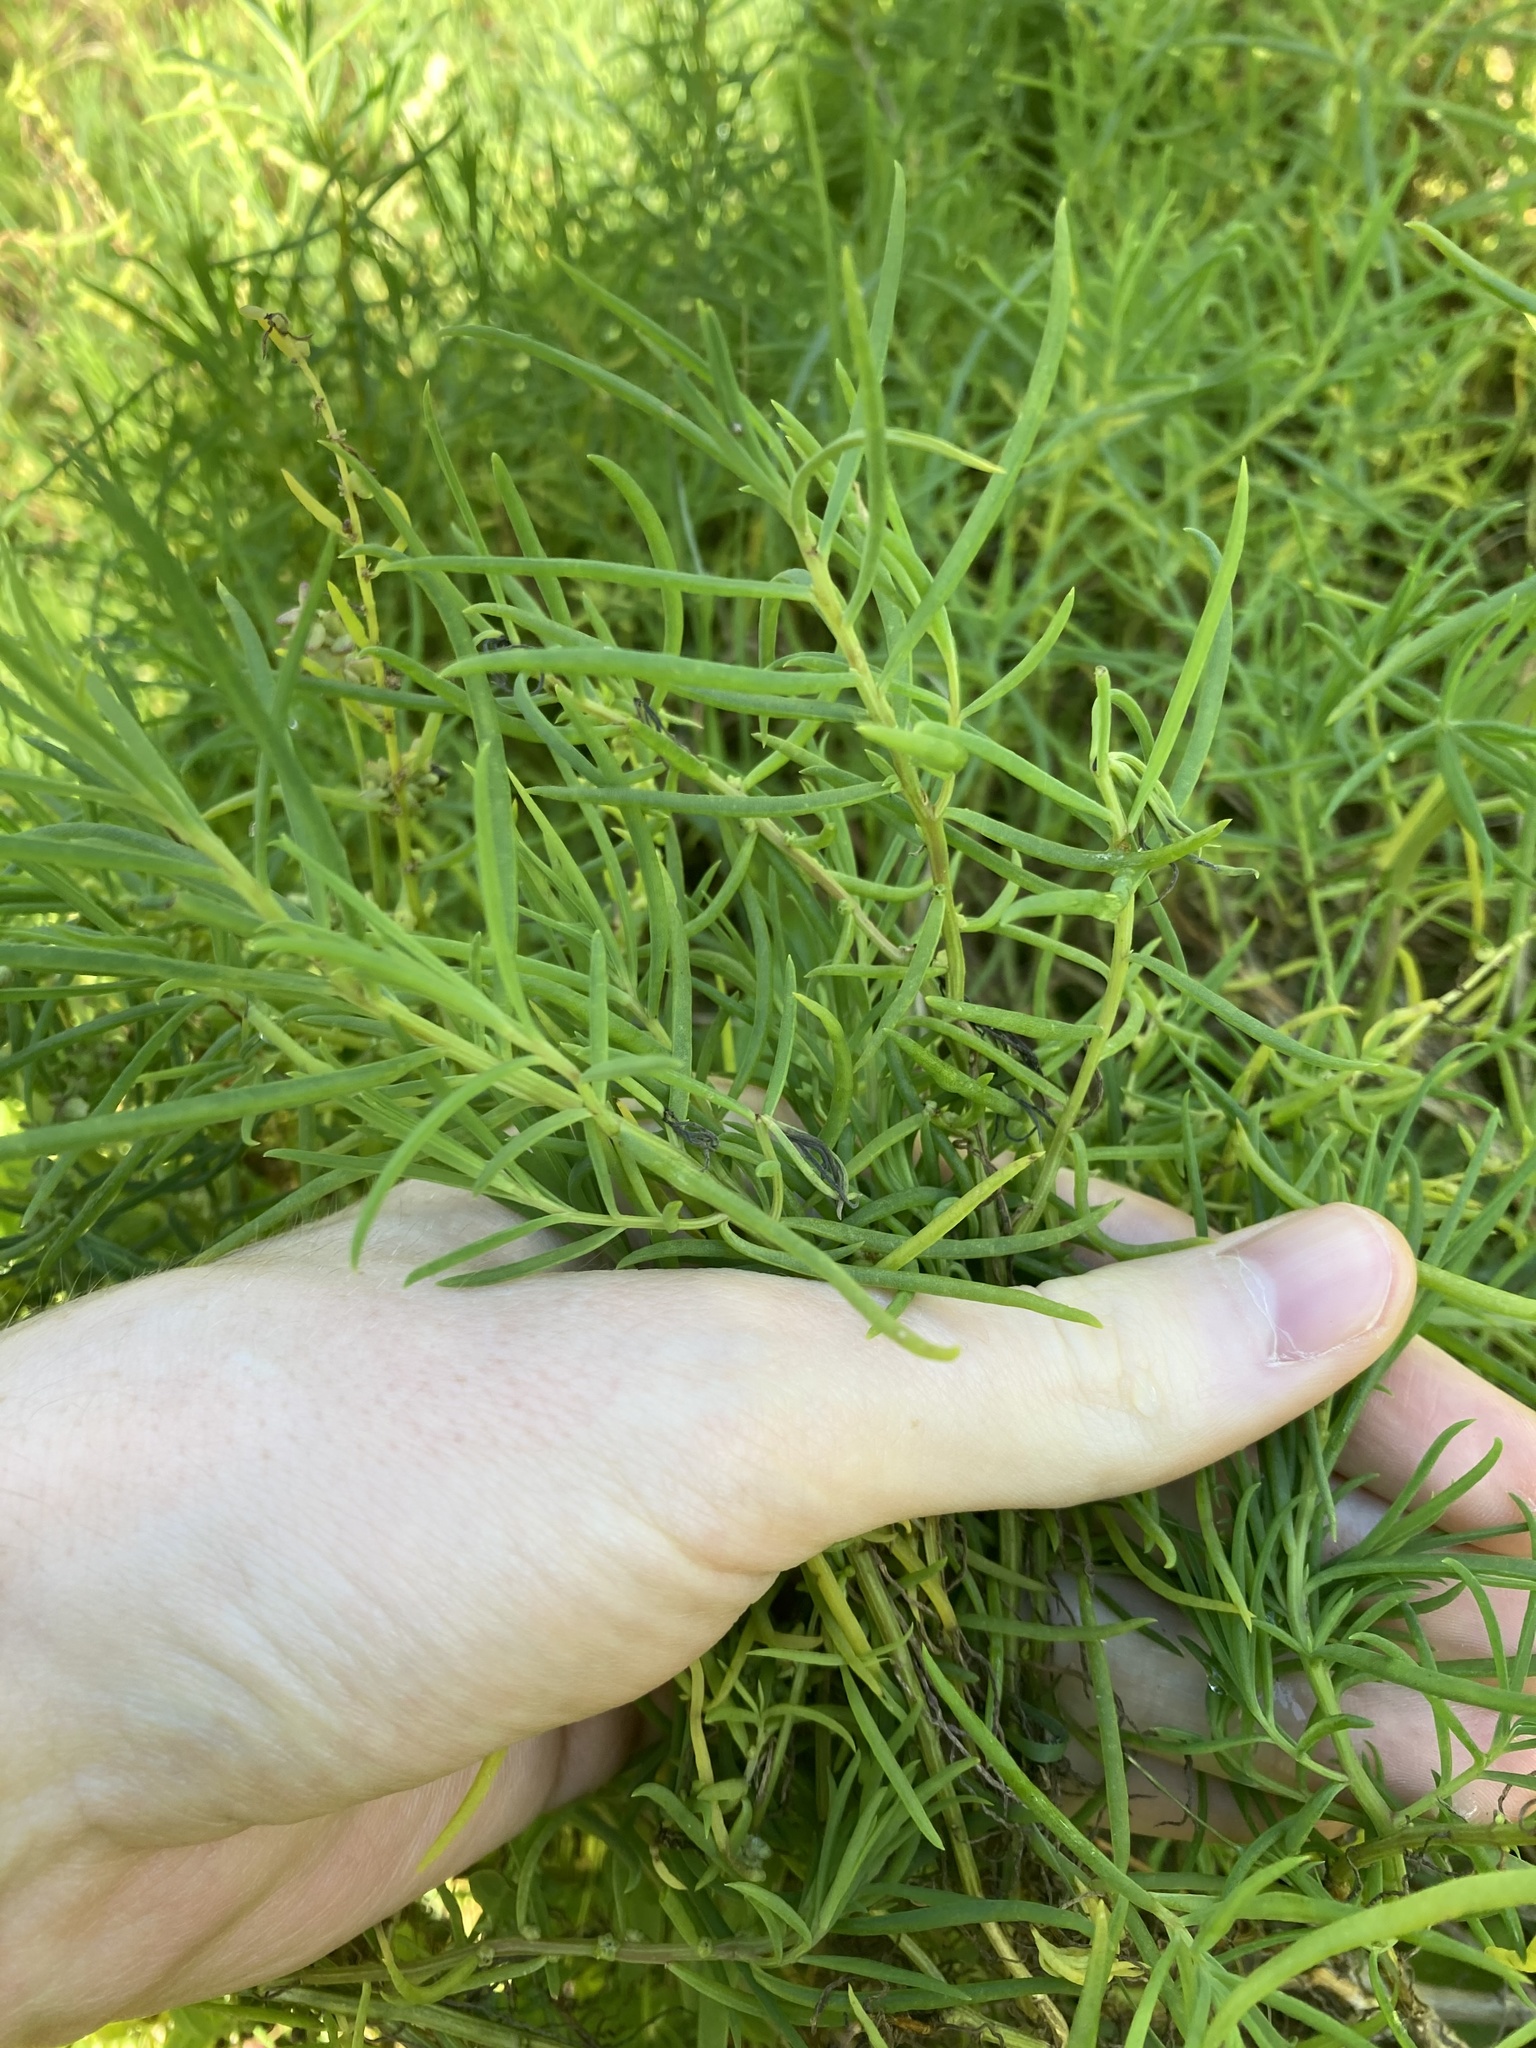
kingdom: Plantae
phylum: Tracheophyta
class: Magnoliopsida
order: Caryophyllales
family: Amaranthaceae
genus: Suaeda
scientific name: Suaeda australis
